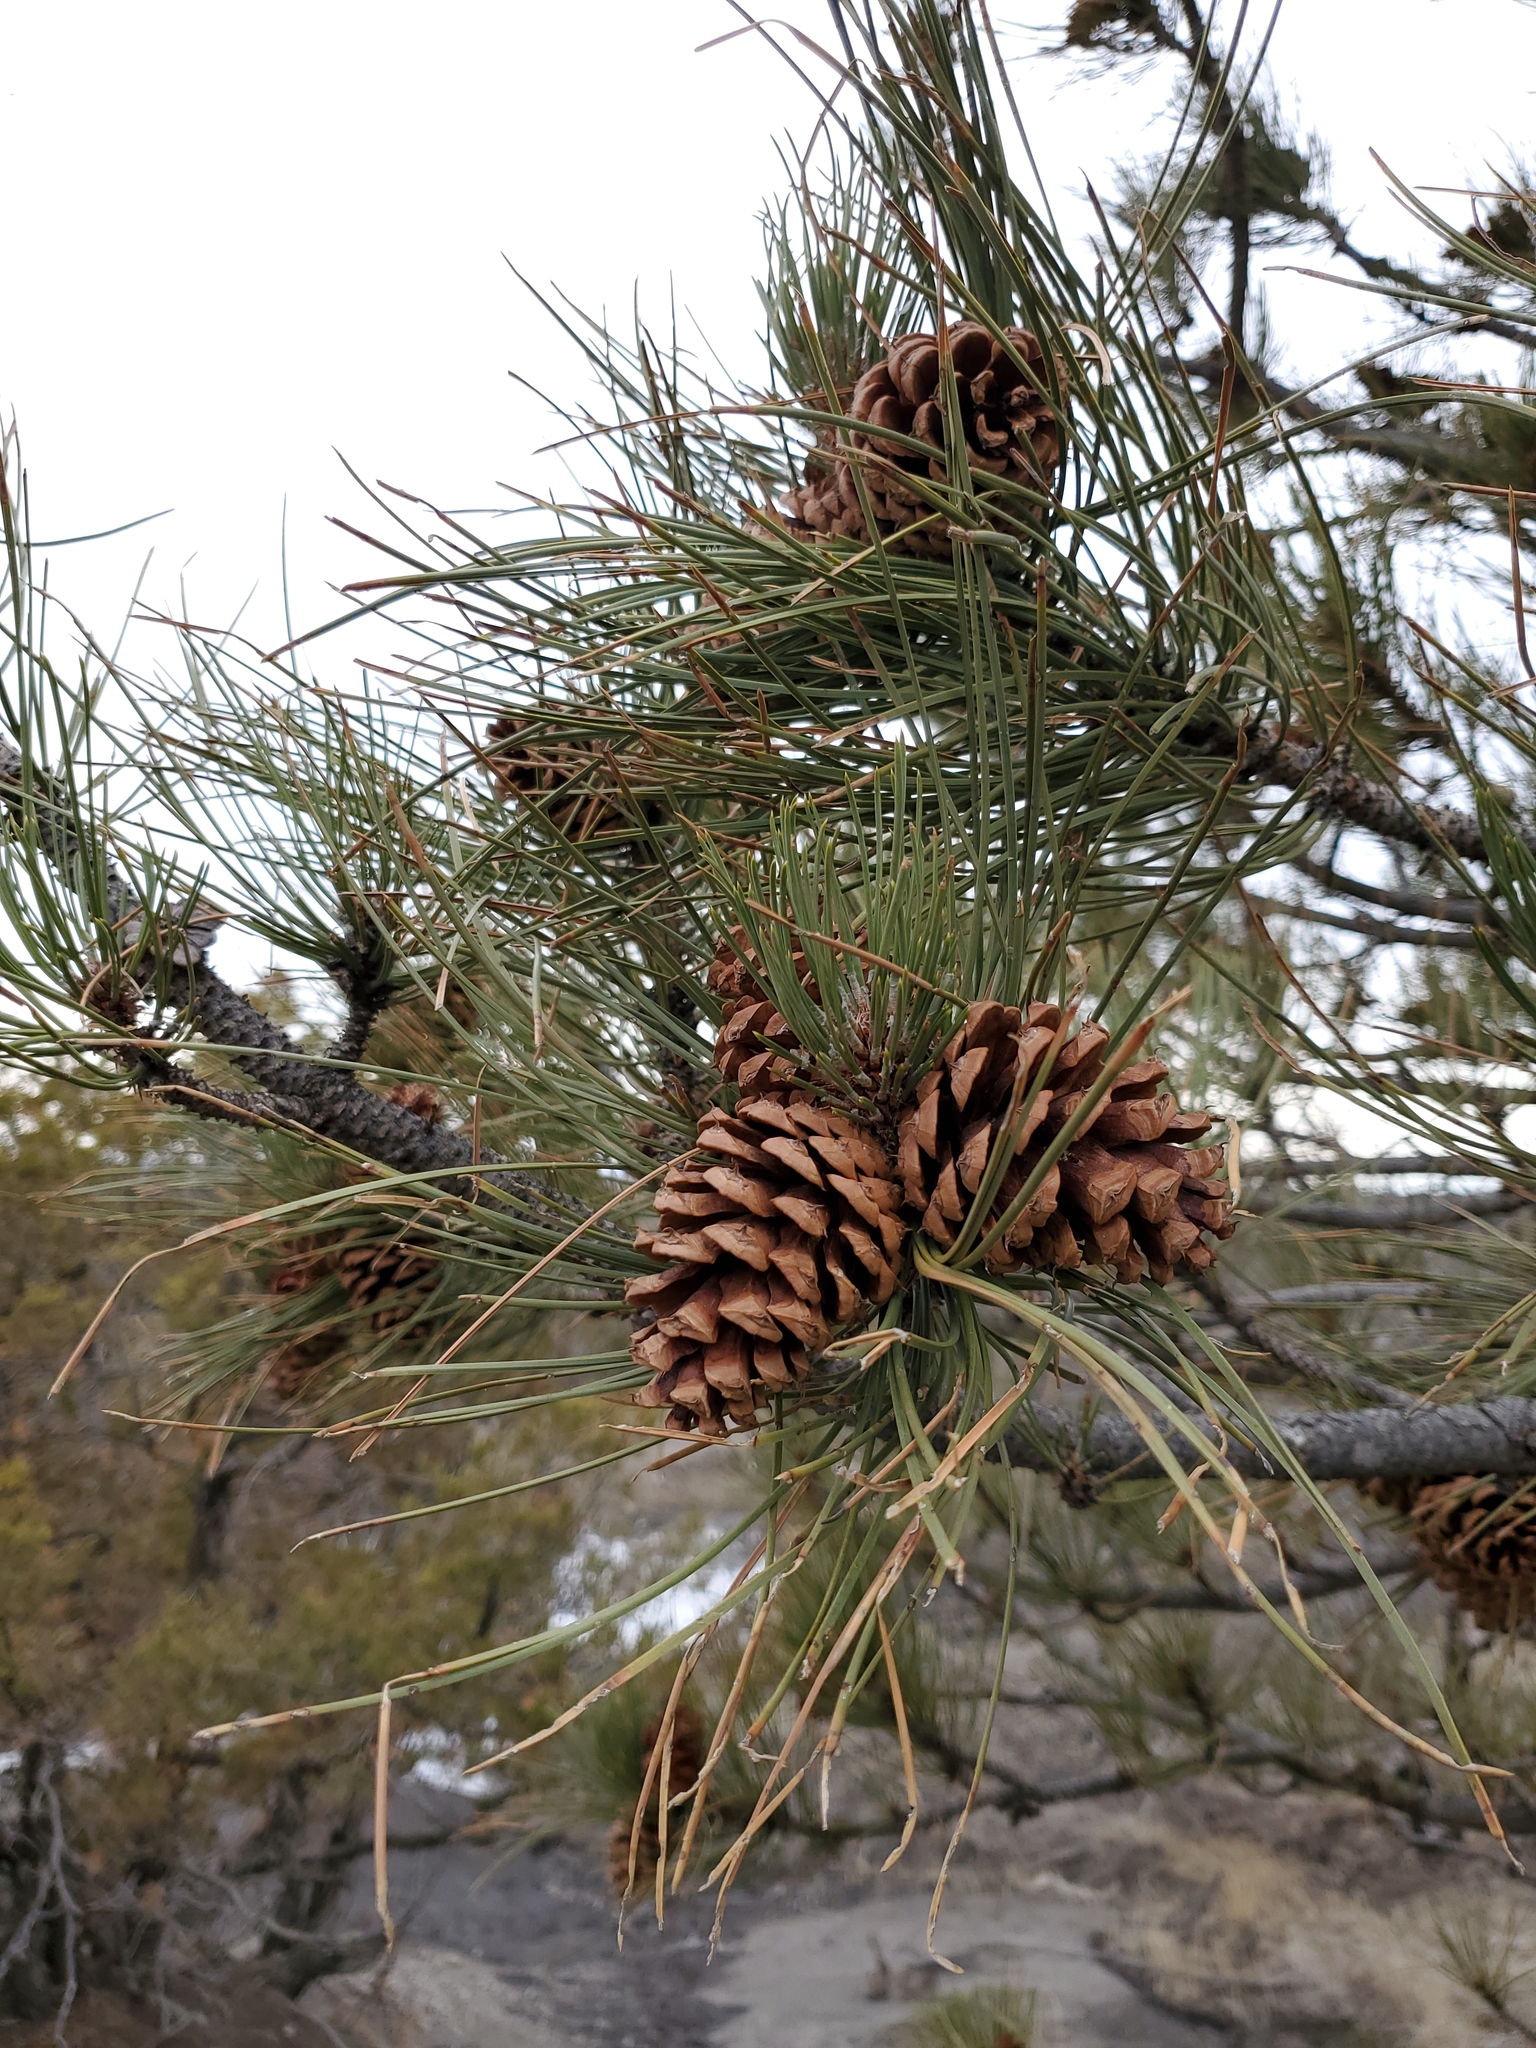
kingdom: Plantae
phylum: Tracheophyta
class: Pinopsida
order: Pinales
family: Pinaceae
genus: Pinus
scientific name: Pinus ponderosa
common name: Western yellow-pine
